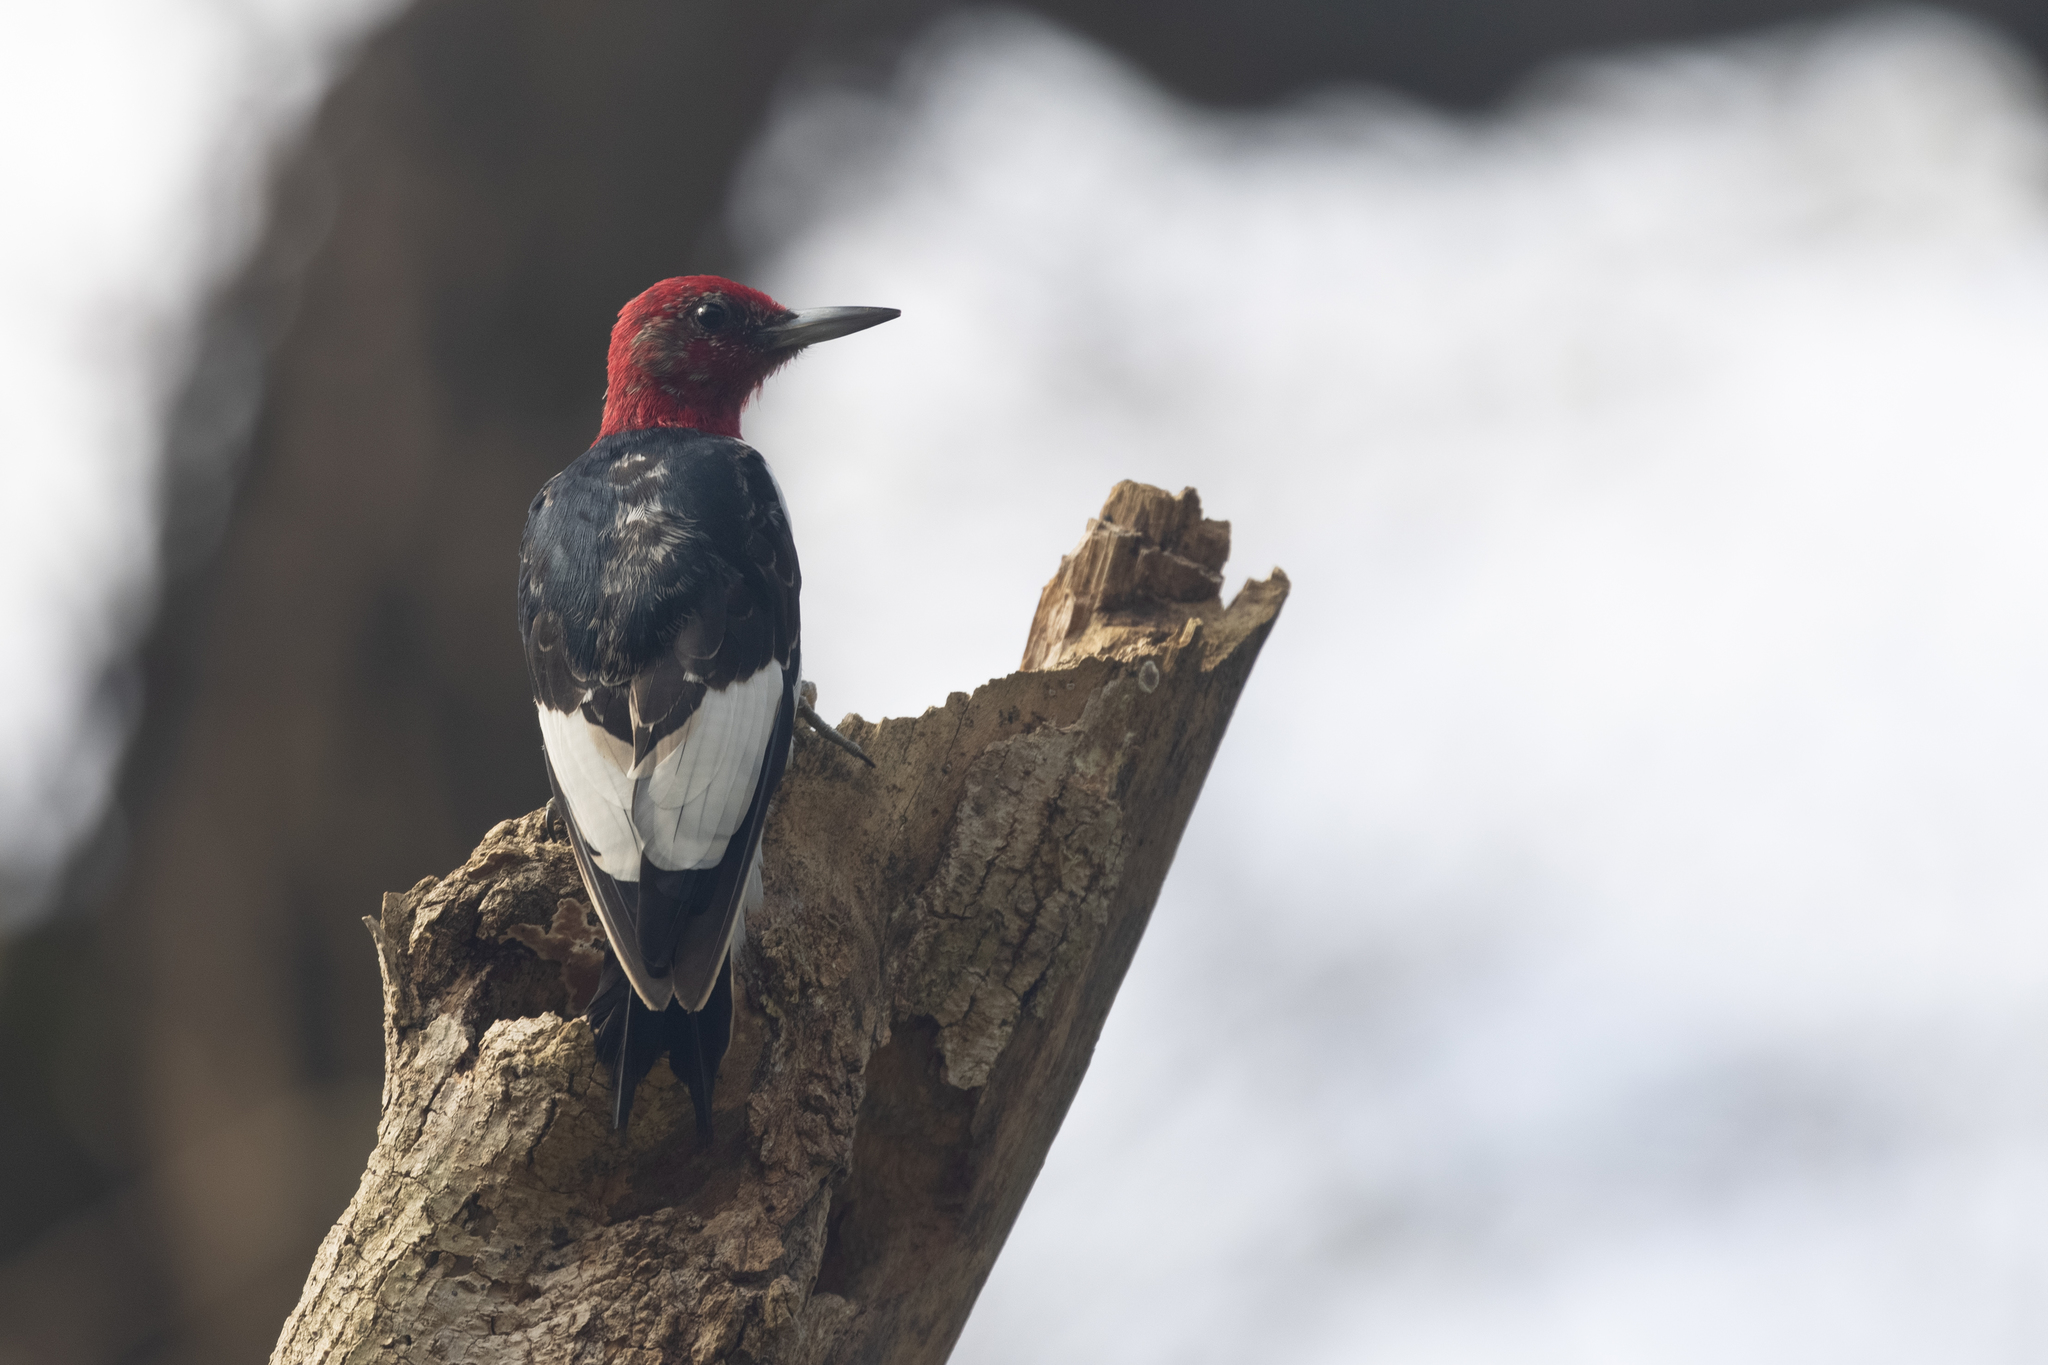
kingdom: Animalia
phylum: Chordata
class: Aves
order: Piciformes
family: Picidae
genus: Melanerpes
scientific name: Melanerpes erythrocephalus
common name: Red-headed woodpecker
